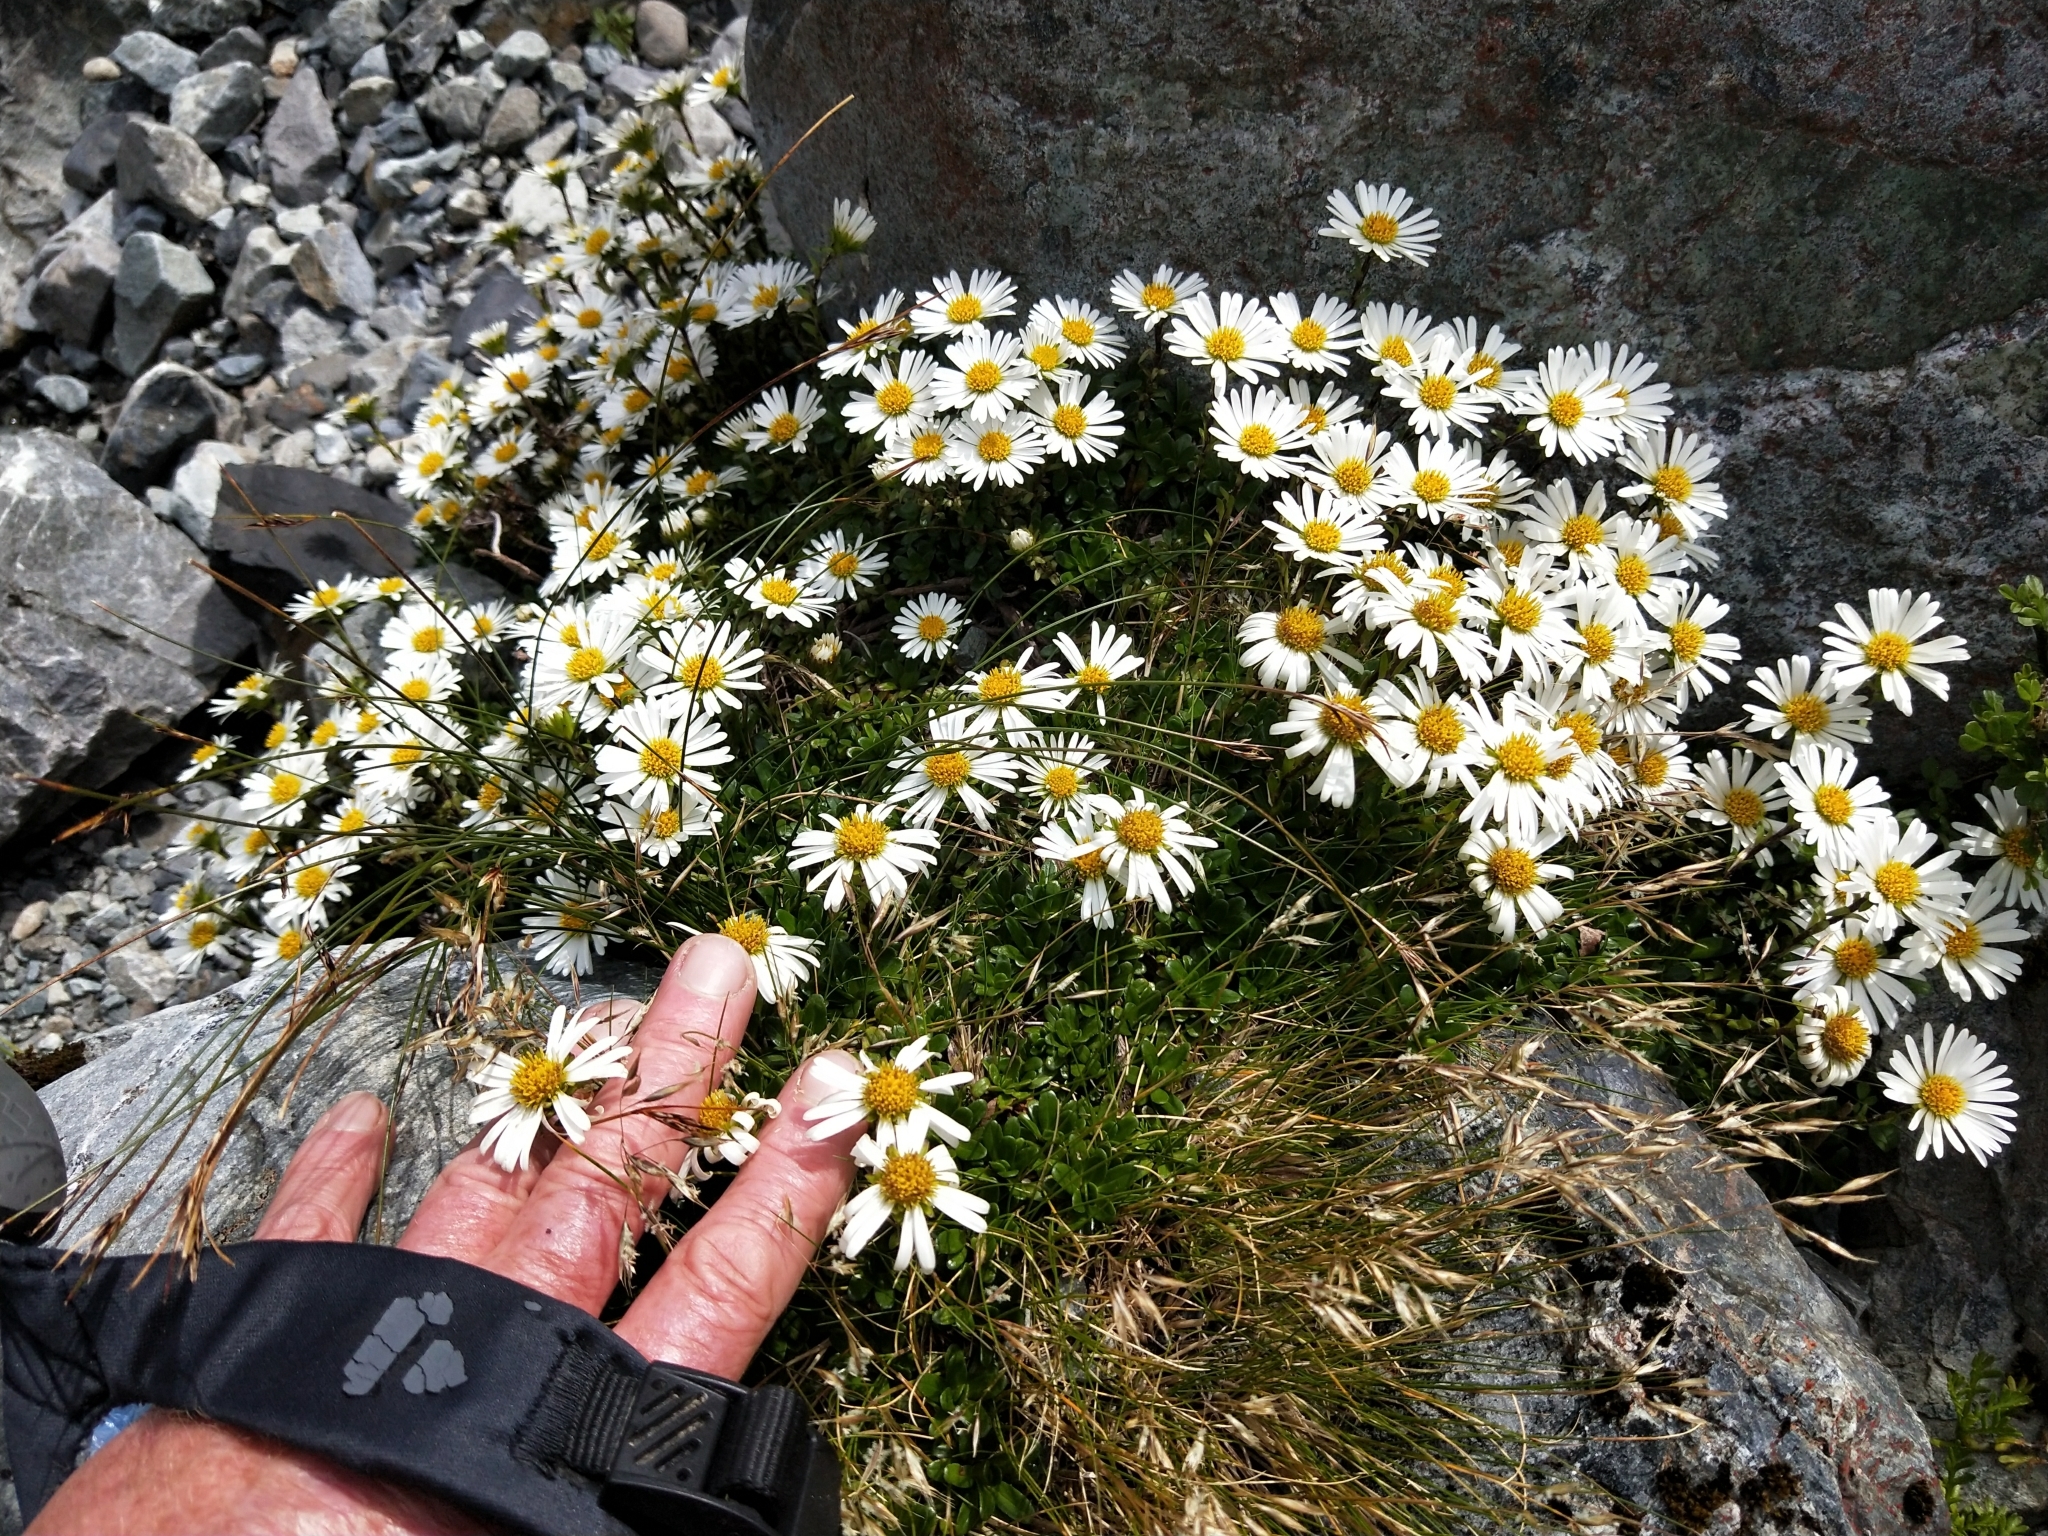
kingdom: Plantae
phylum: Tracheophyta
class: Magnoliopsida
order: Asterales
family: Asteraceae
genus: Celmisia
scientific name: Celmisia bellidioides
